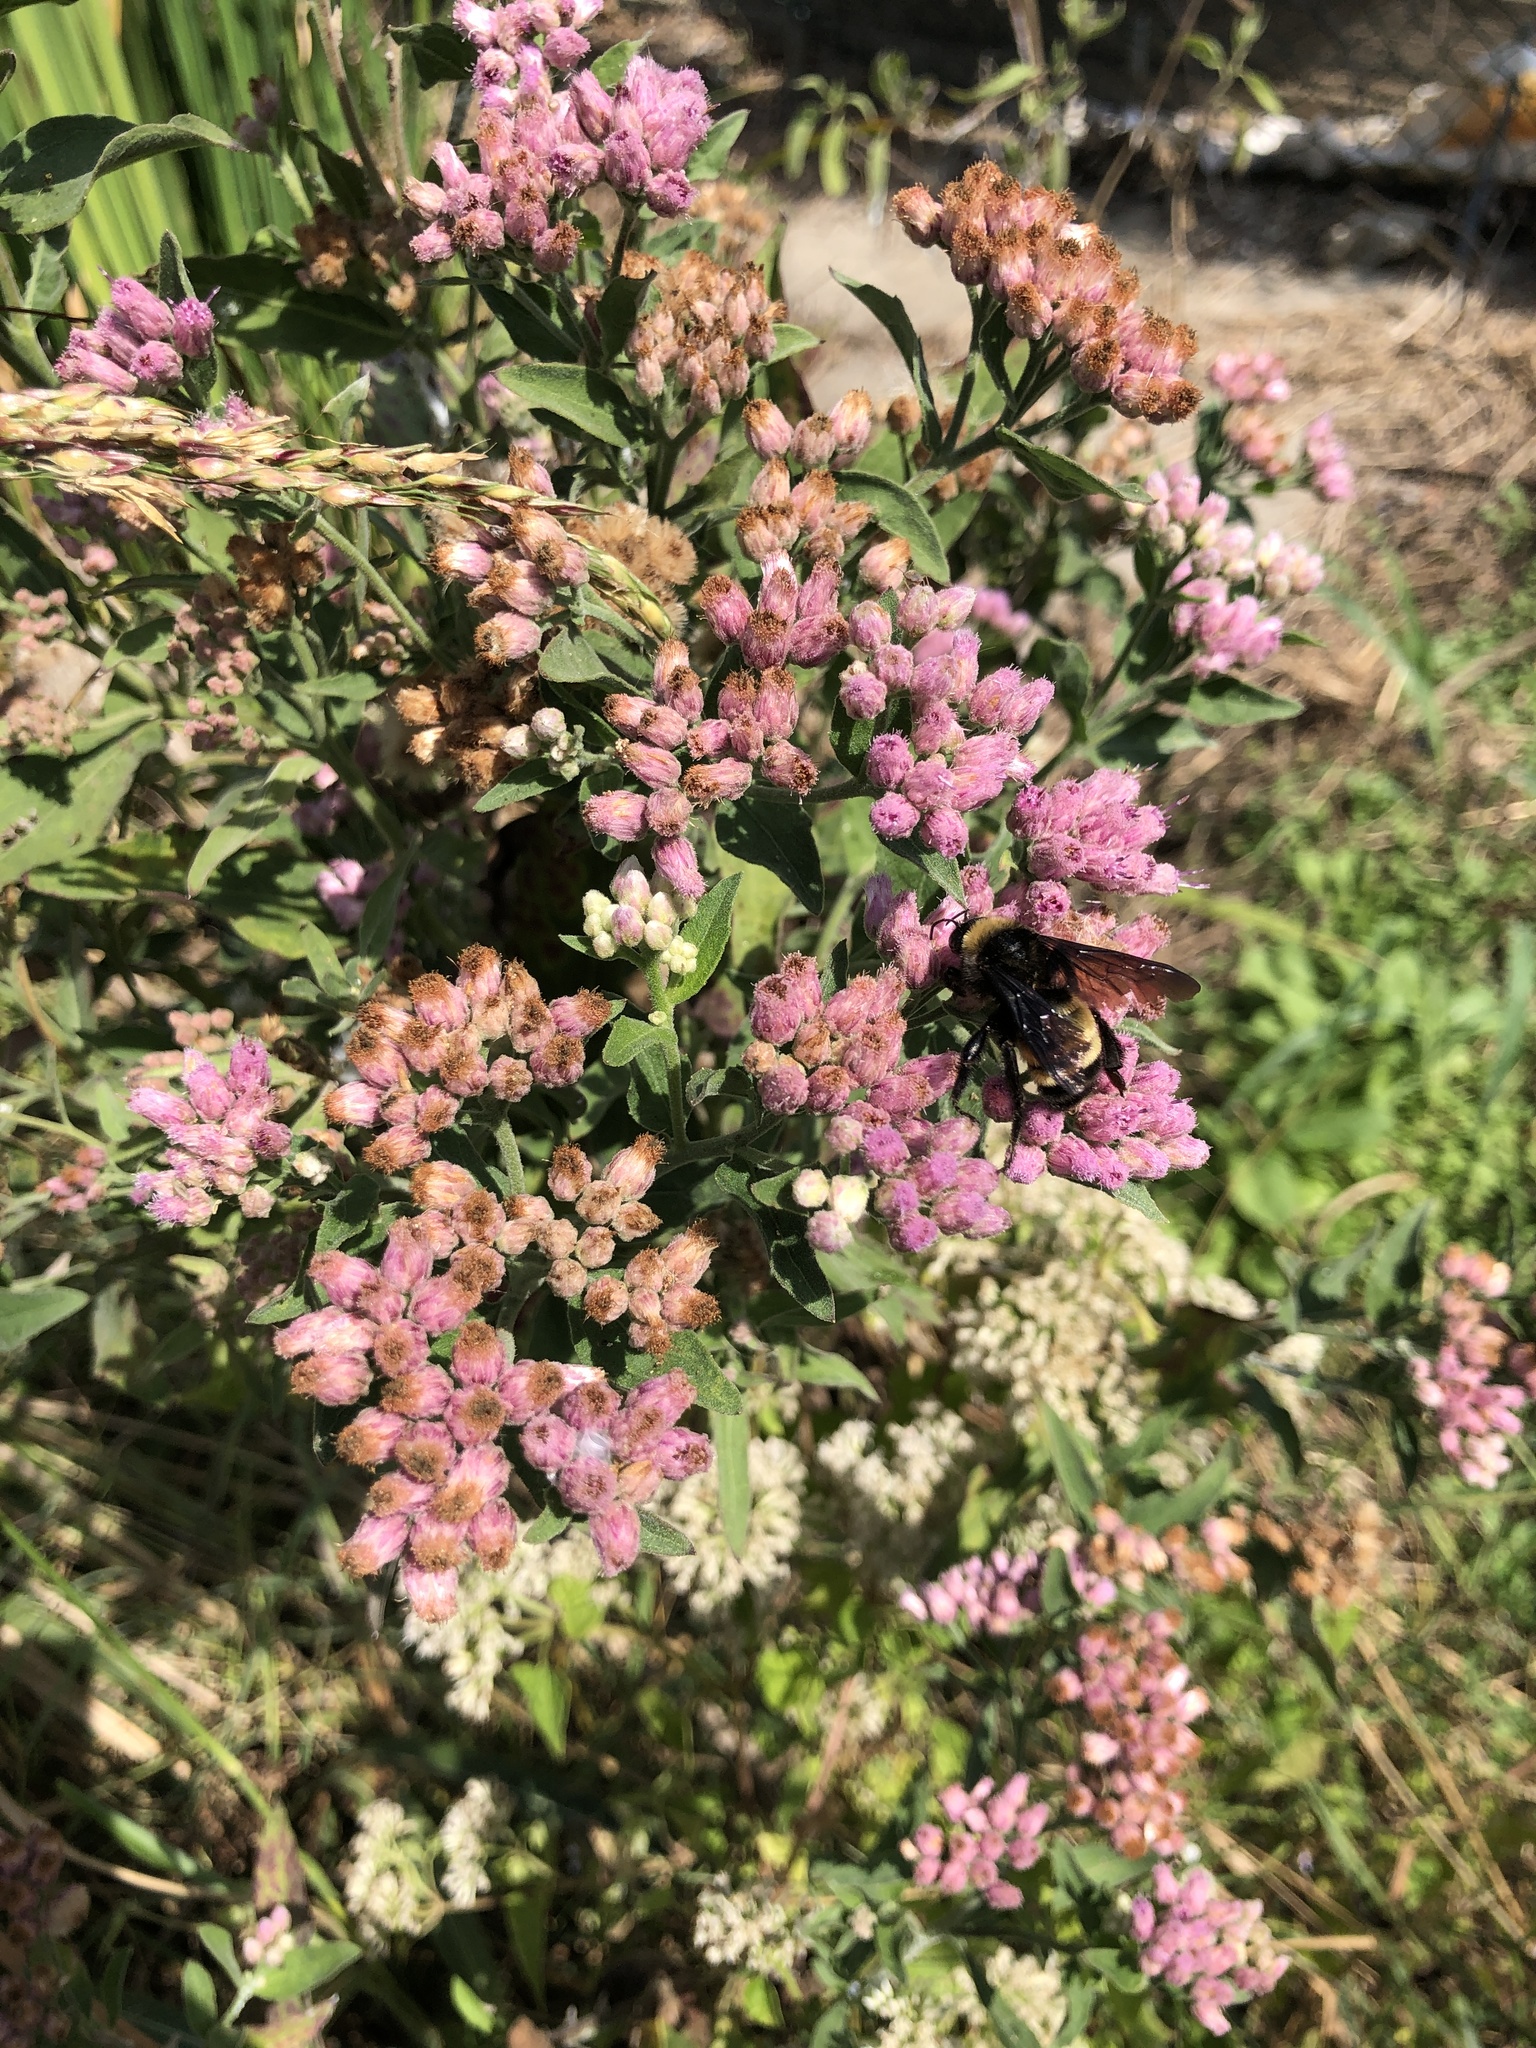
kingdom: Plantae
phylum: Tracheophyta
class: Magnoliopsida
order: Asterales
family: Asteraceae
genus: Pluchea
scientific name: Pluchea odorata
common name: Saltmarsh fleabane
